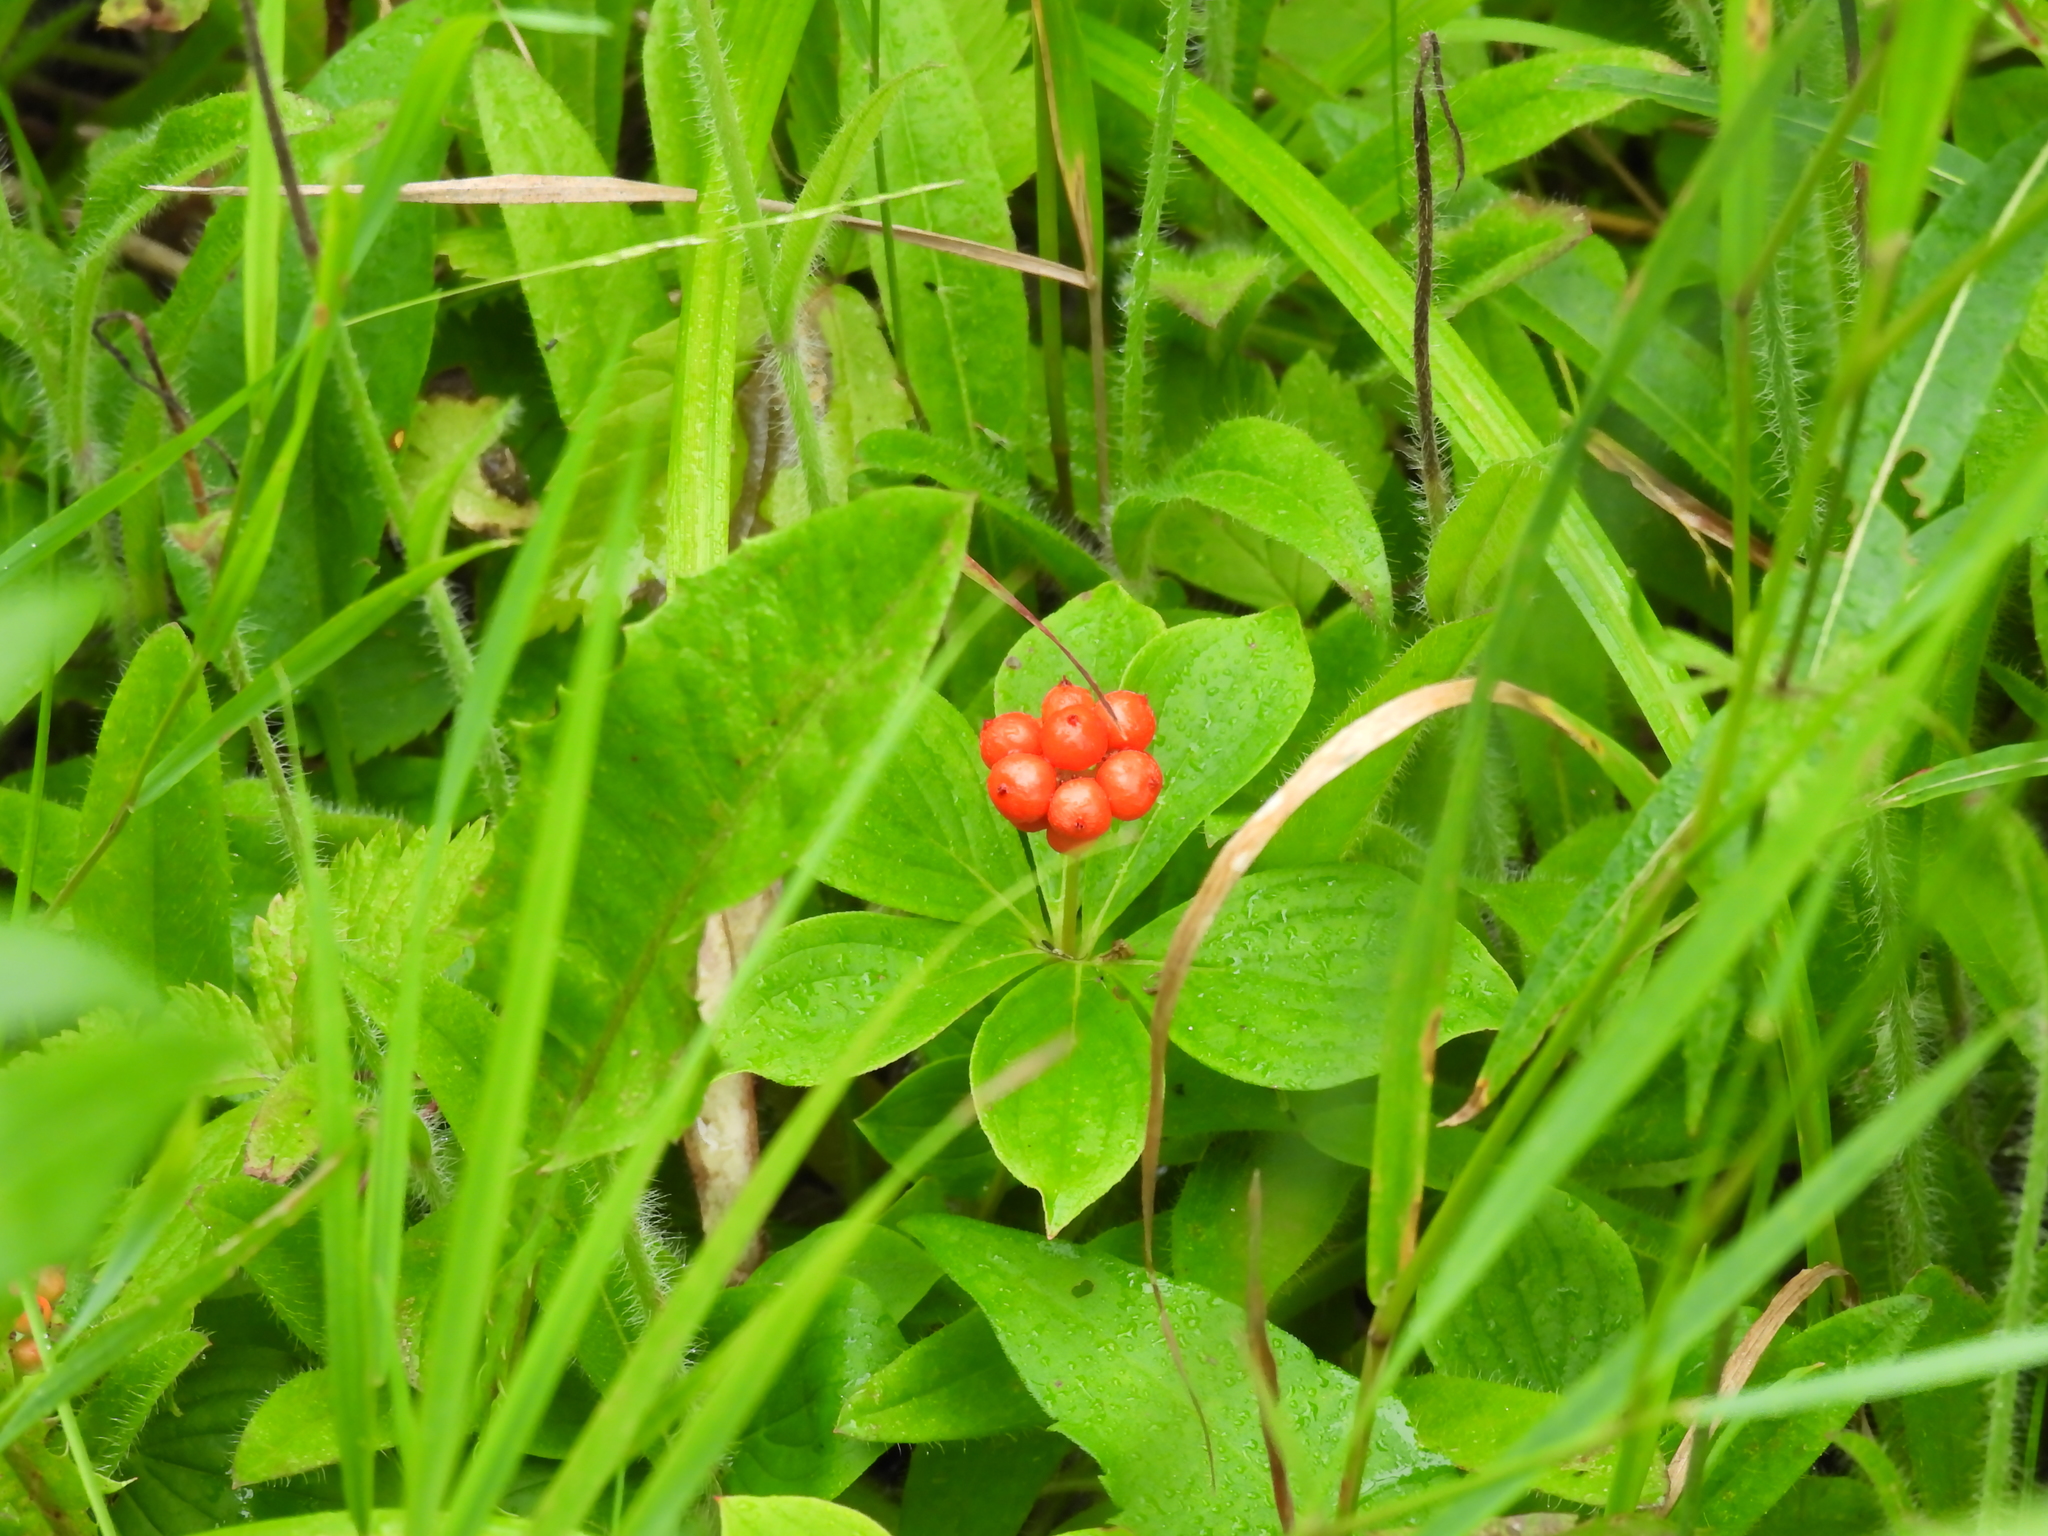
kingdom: Plantae
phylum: Tracheophyta
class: Magnoliopsida
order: Cornales
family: Cornaceae
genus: Cornus
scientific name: Cornus canadensis
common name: Creeping dogwood
